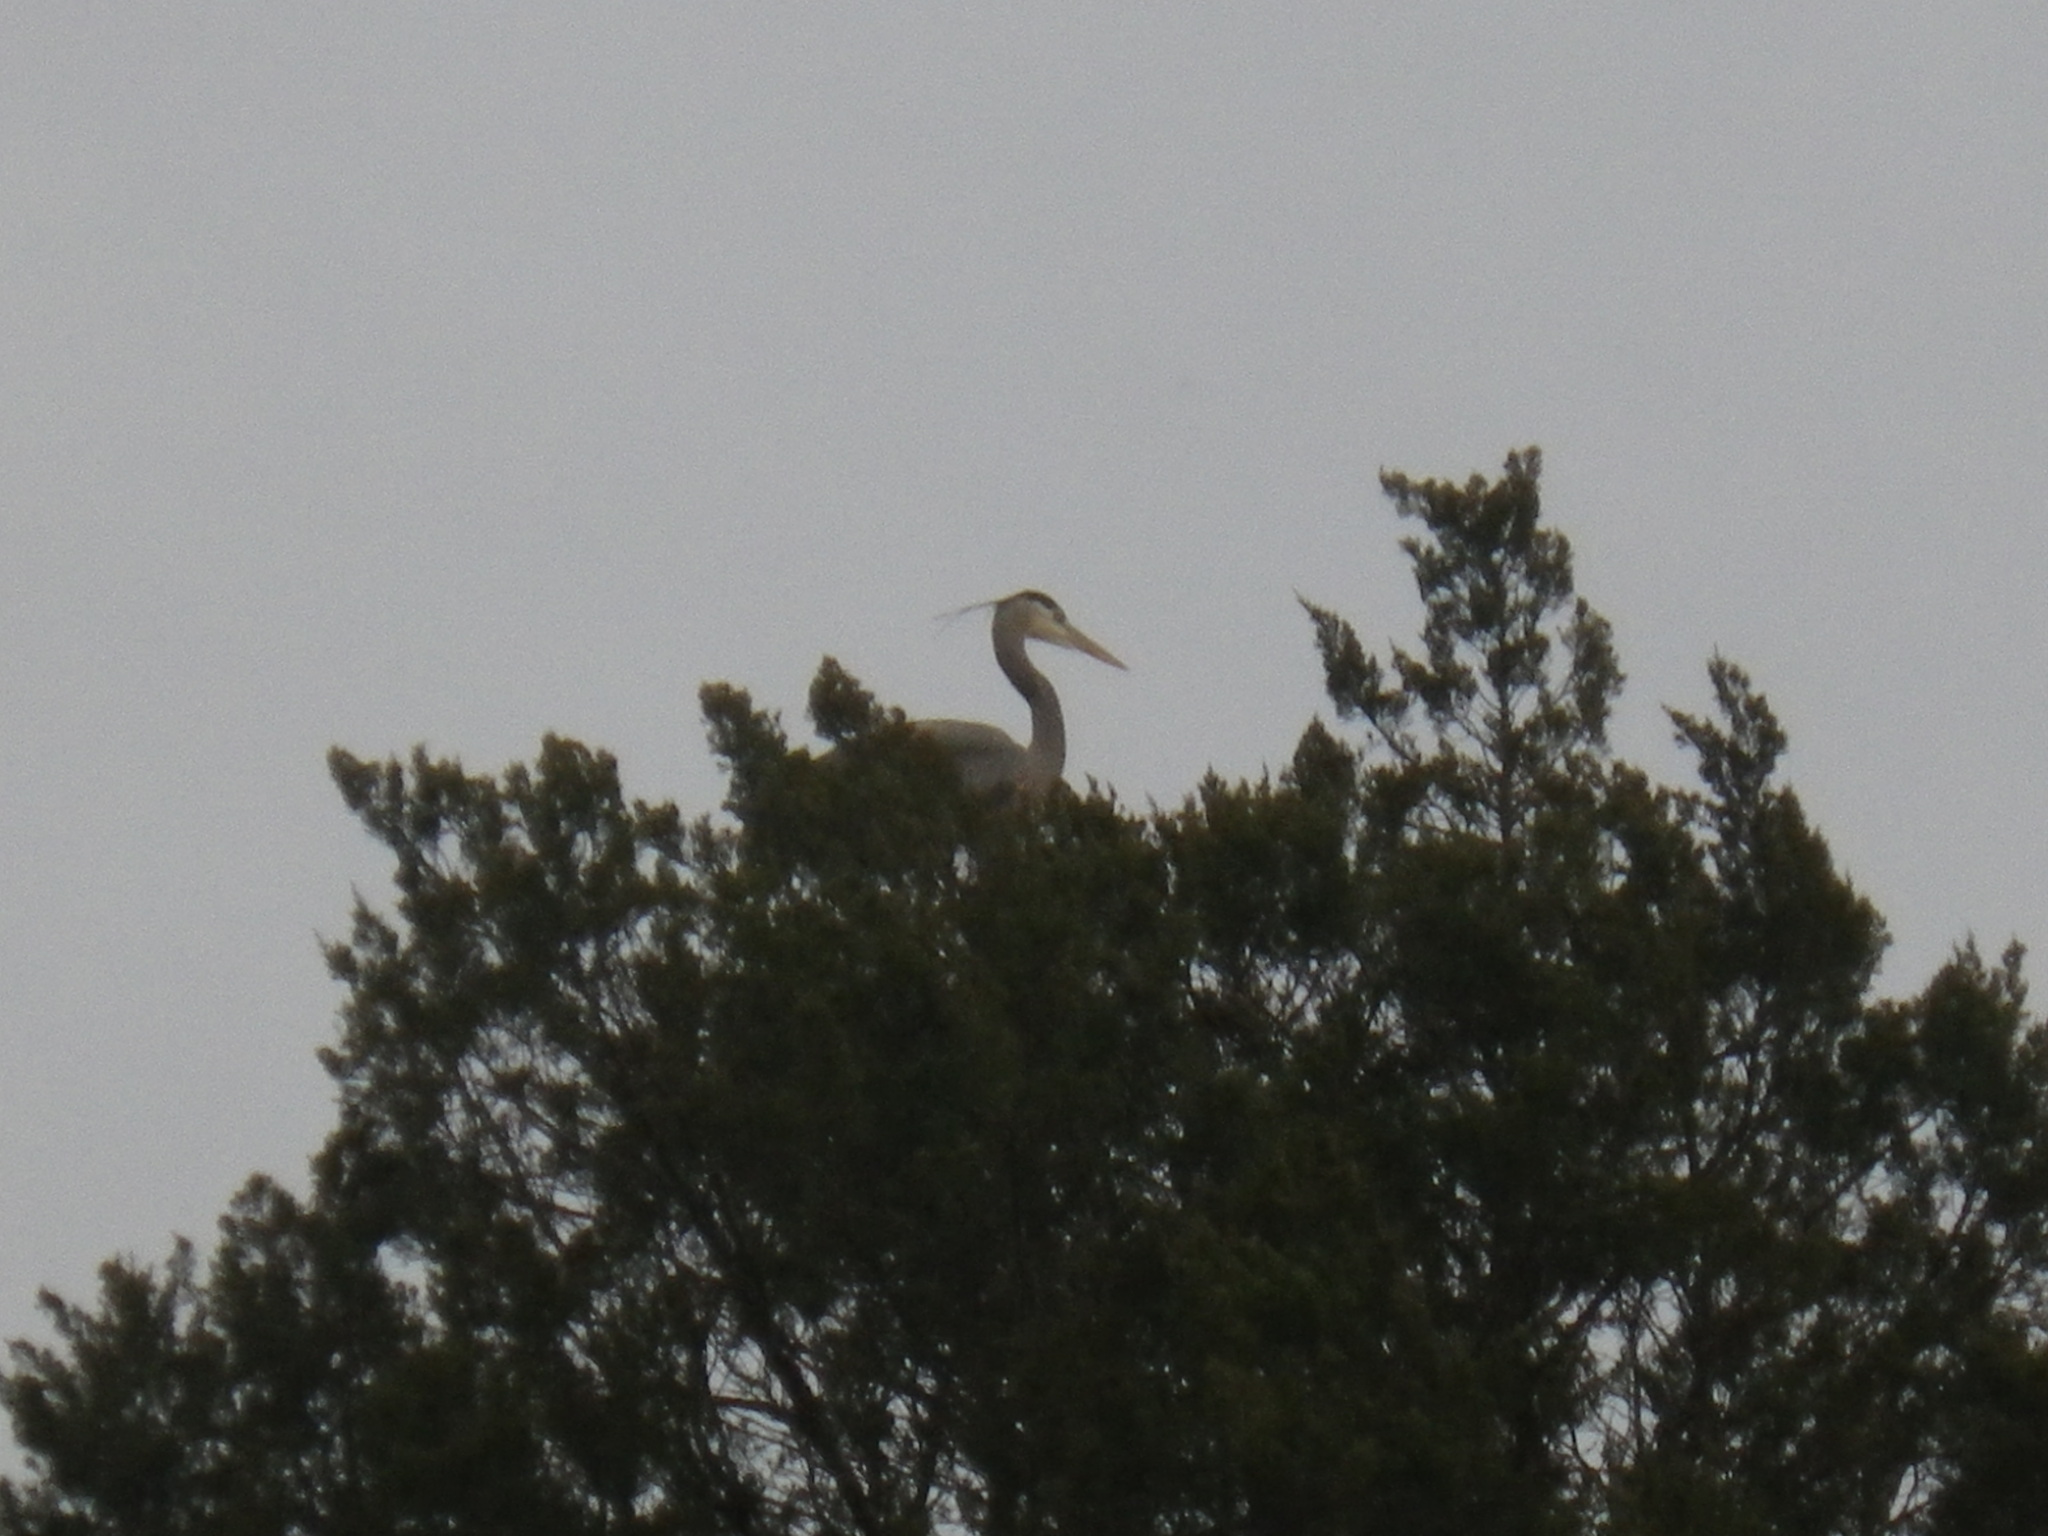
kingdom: Animalia
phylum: Chordata
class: Aves
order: Pelecaniformes
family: Ardeidae
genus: Ardea
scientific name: Ardea herodias
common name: Great blue heron
